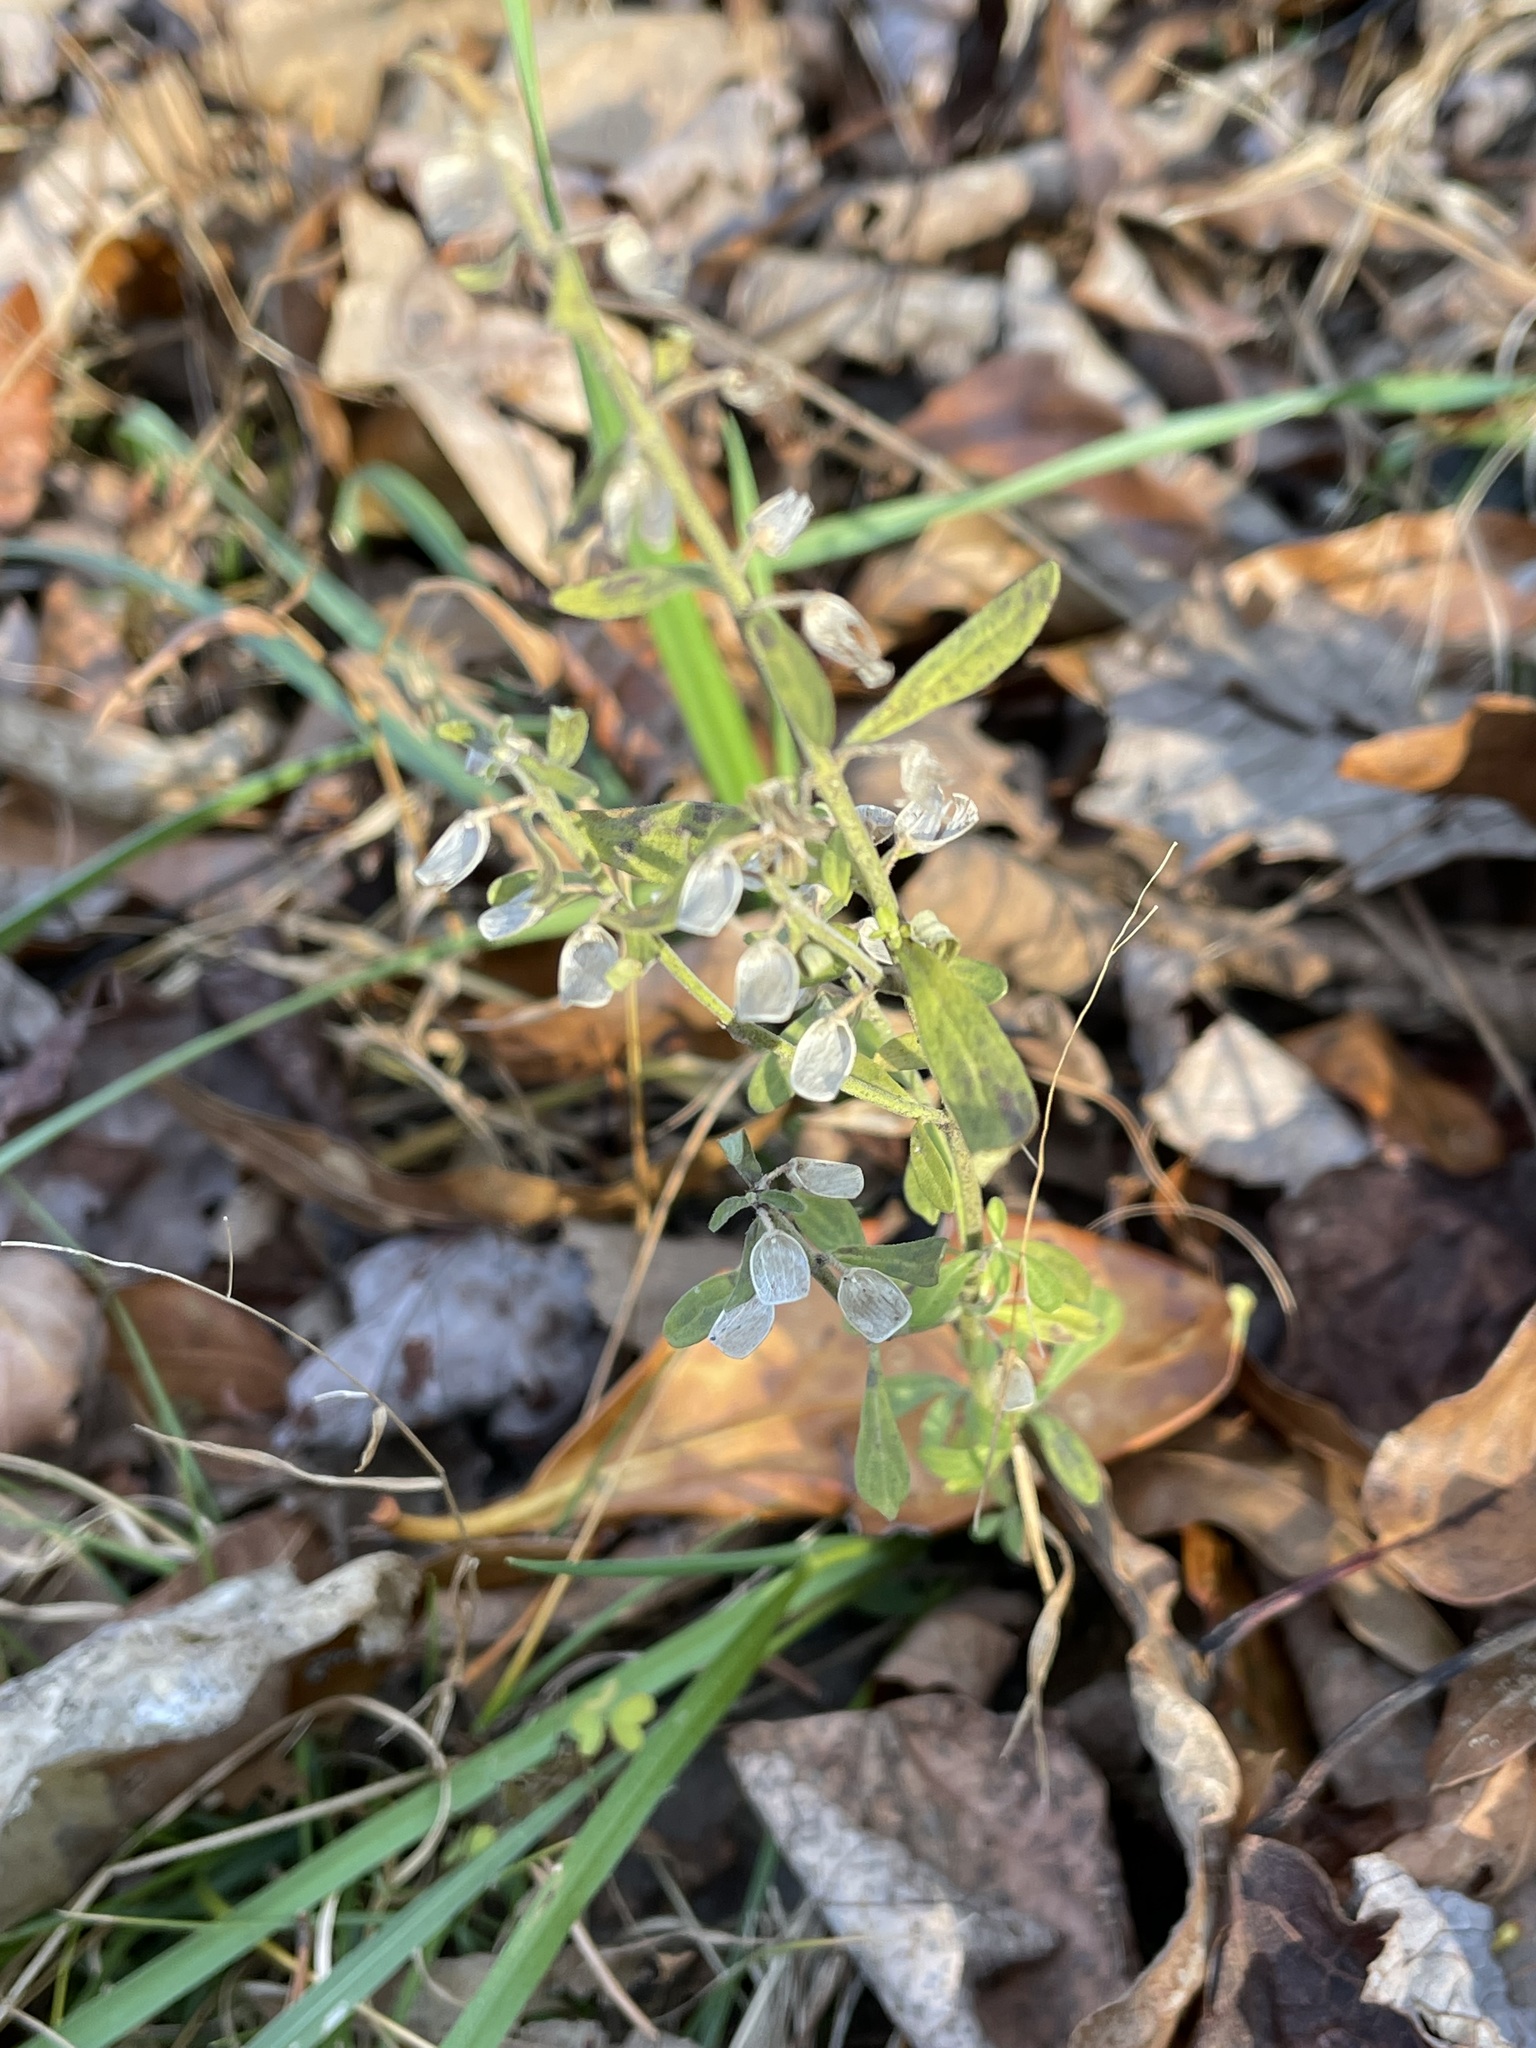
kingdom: Plantae
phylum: Tracheophyta
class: Magnoliopsida
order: Lamiales
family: Lamiaceae
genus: Scutellaria
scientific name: Scutellaria integrifolia
